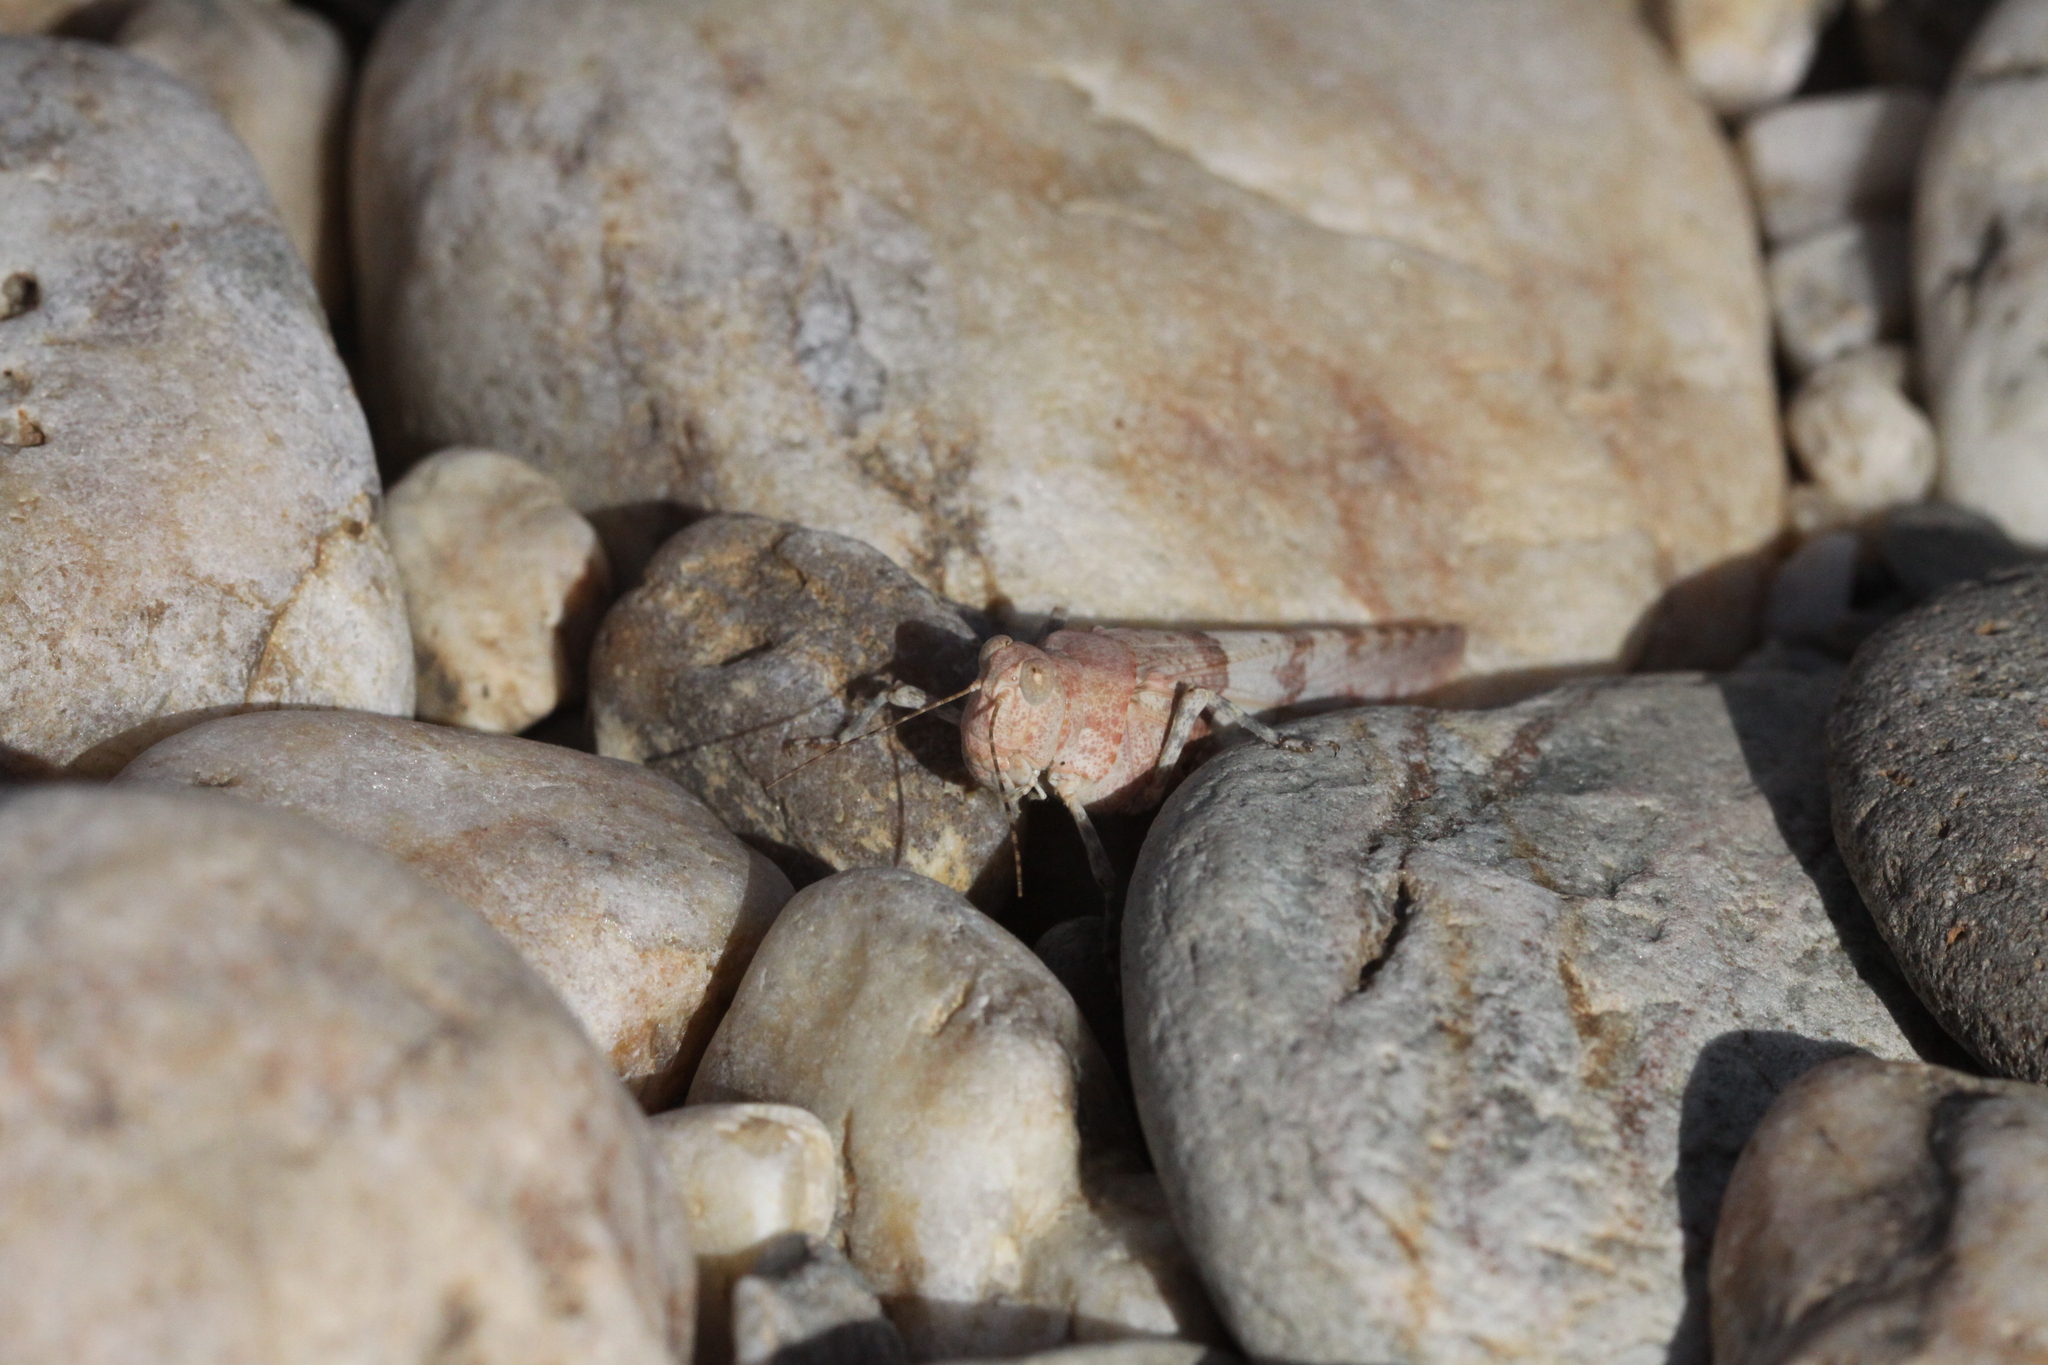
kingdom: Animalia
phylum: Arthropoda
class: Insecta
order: Orthoptera
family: Acrididae
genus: Sphingonotus
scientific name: Sphingonotus caerulans
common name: Blue-winged locust
